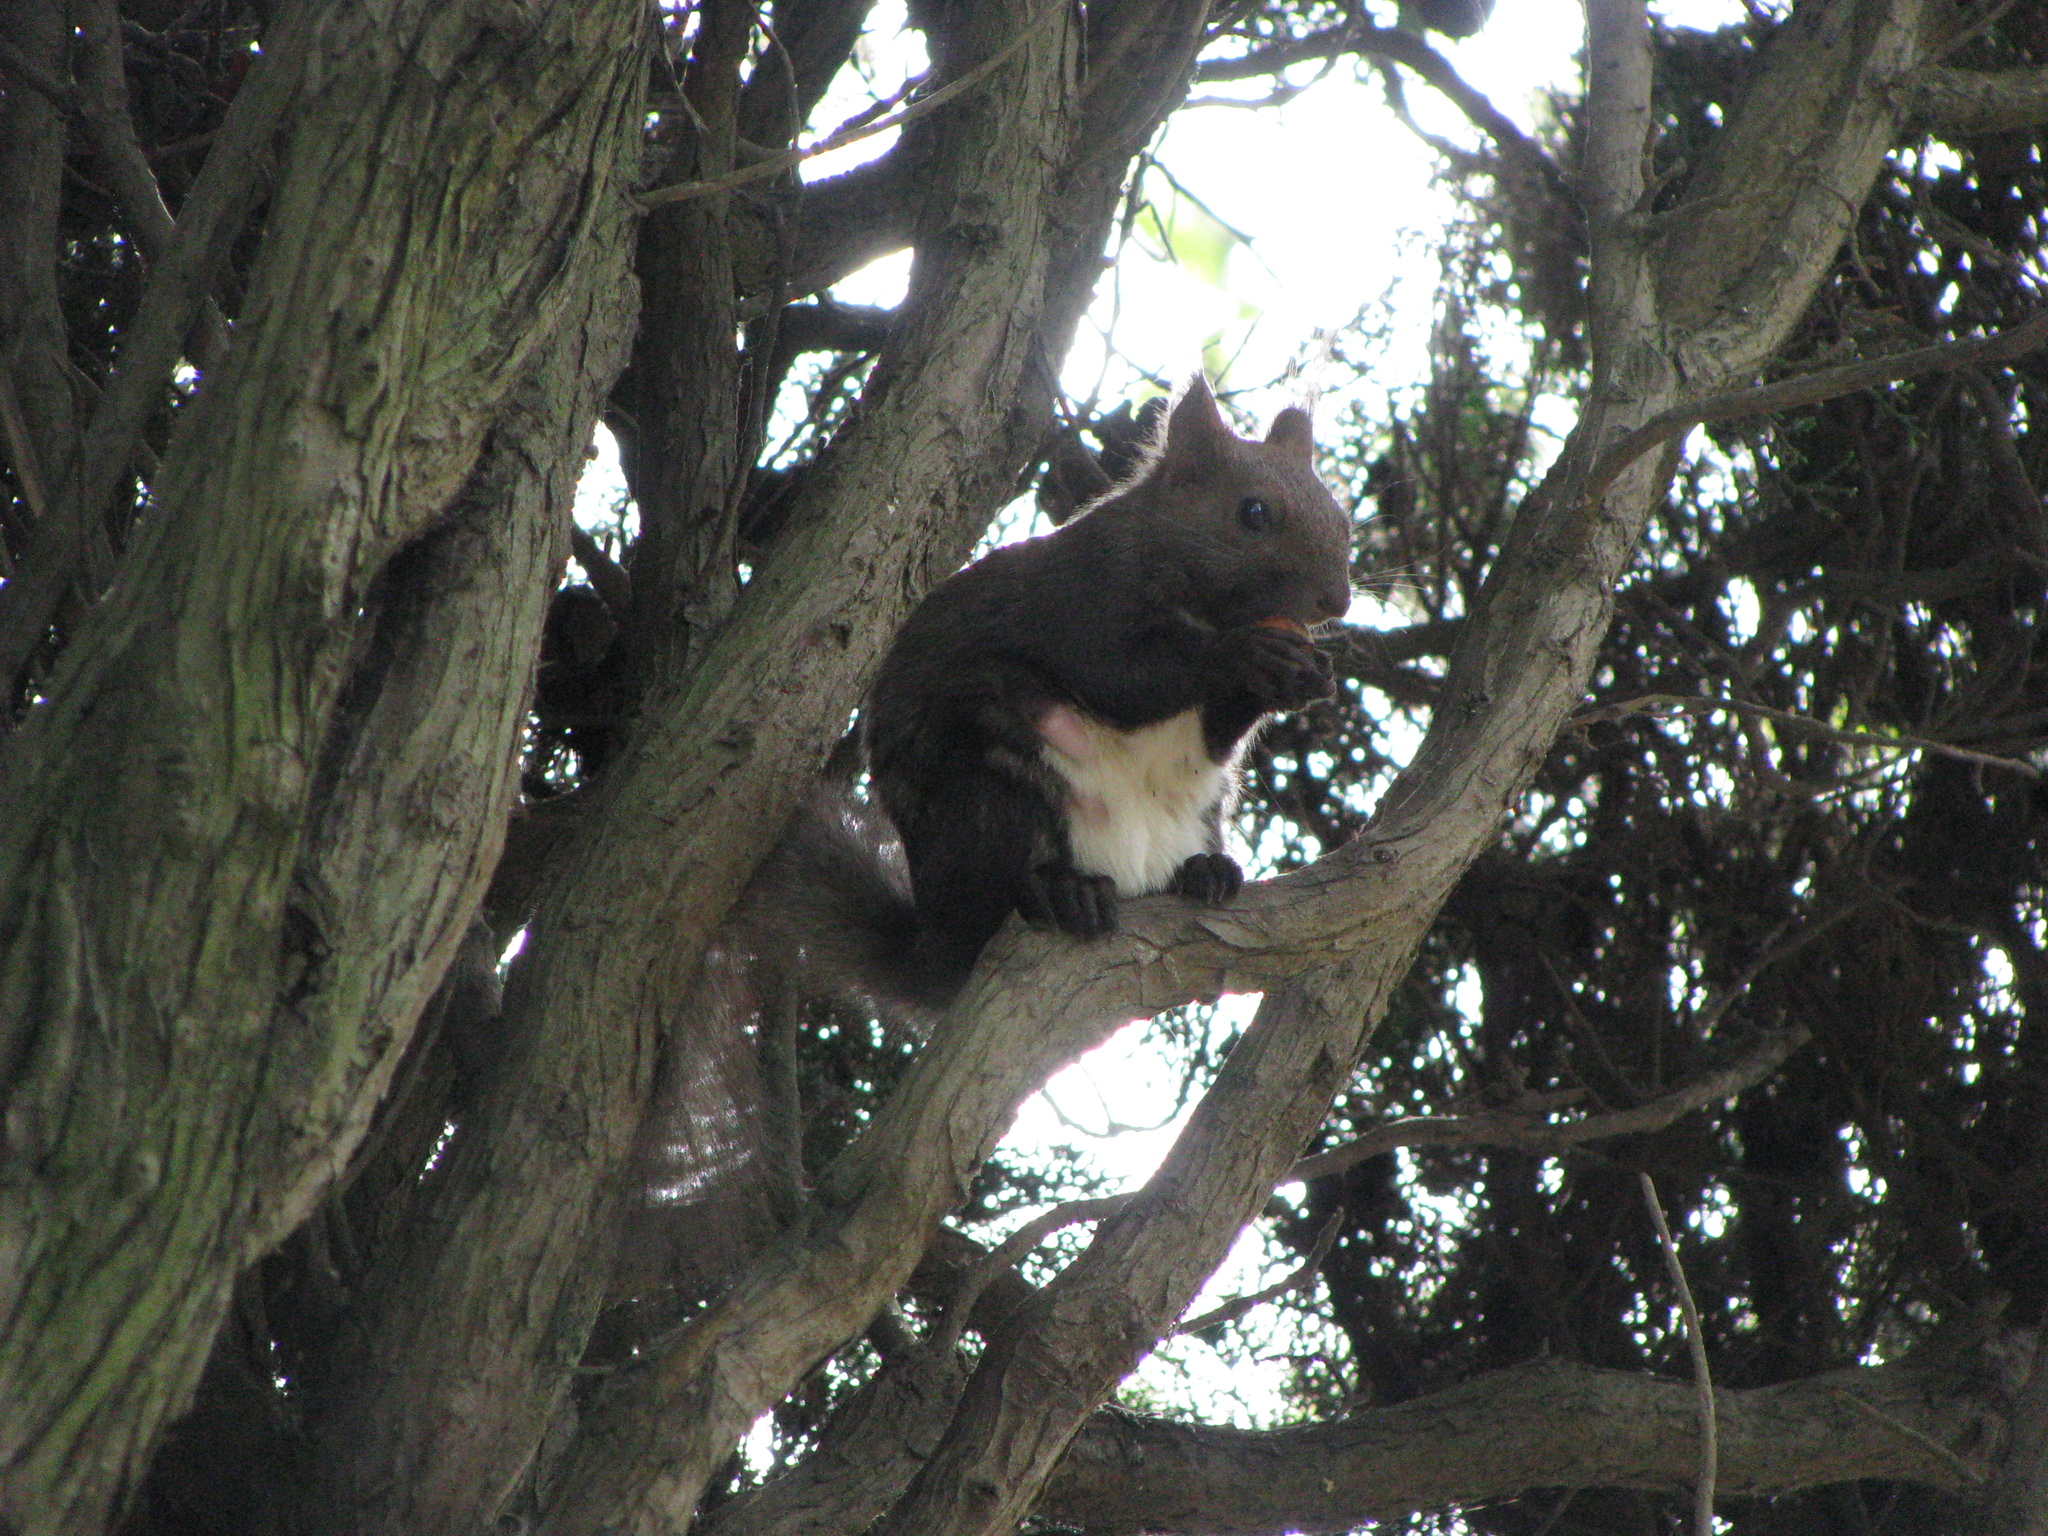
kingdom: Animalia
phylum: Chordata
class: Mammalia
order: Rodentia
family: Sciuridae
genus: Sciurus
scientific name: Sciurus vulgaris
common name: Eurasian red squirrel
